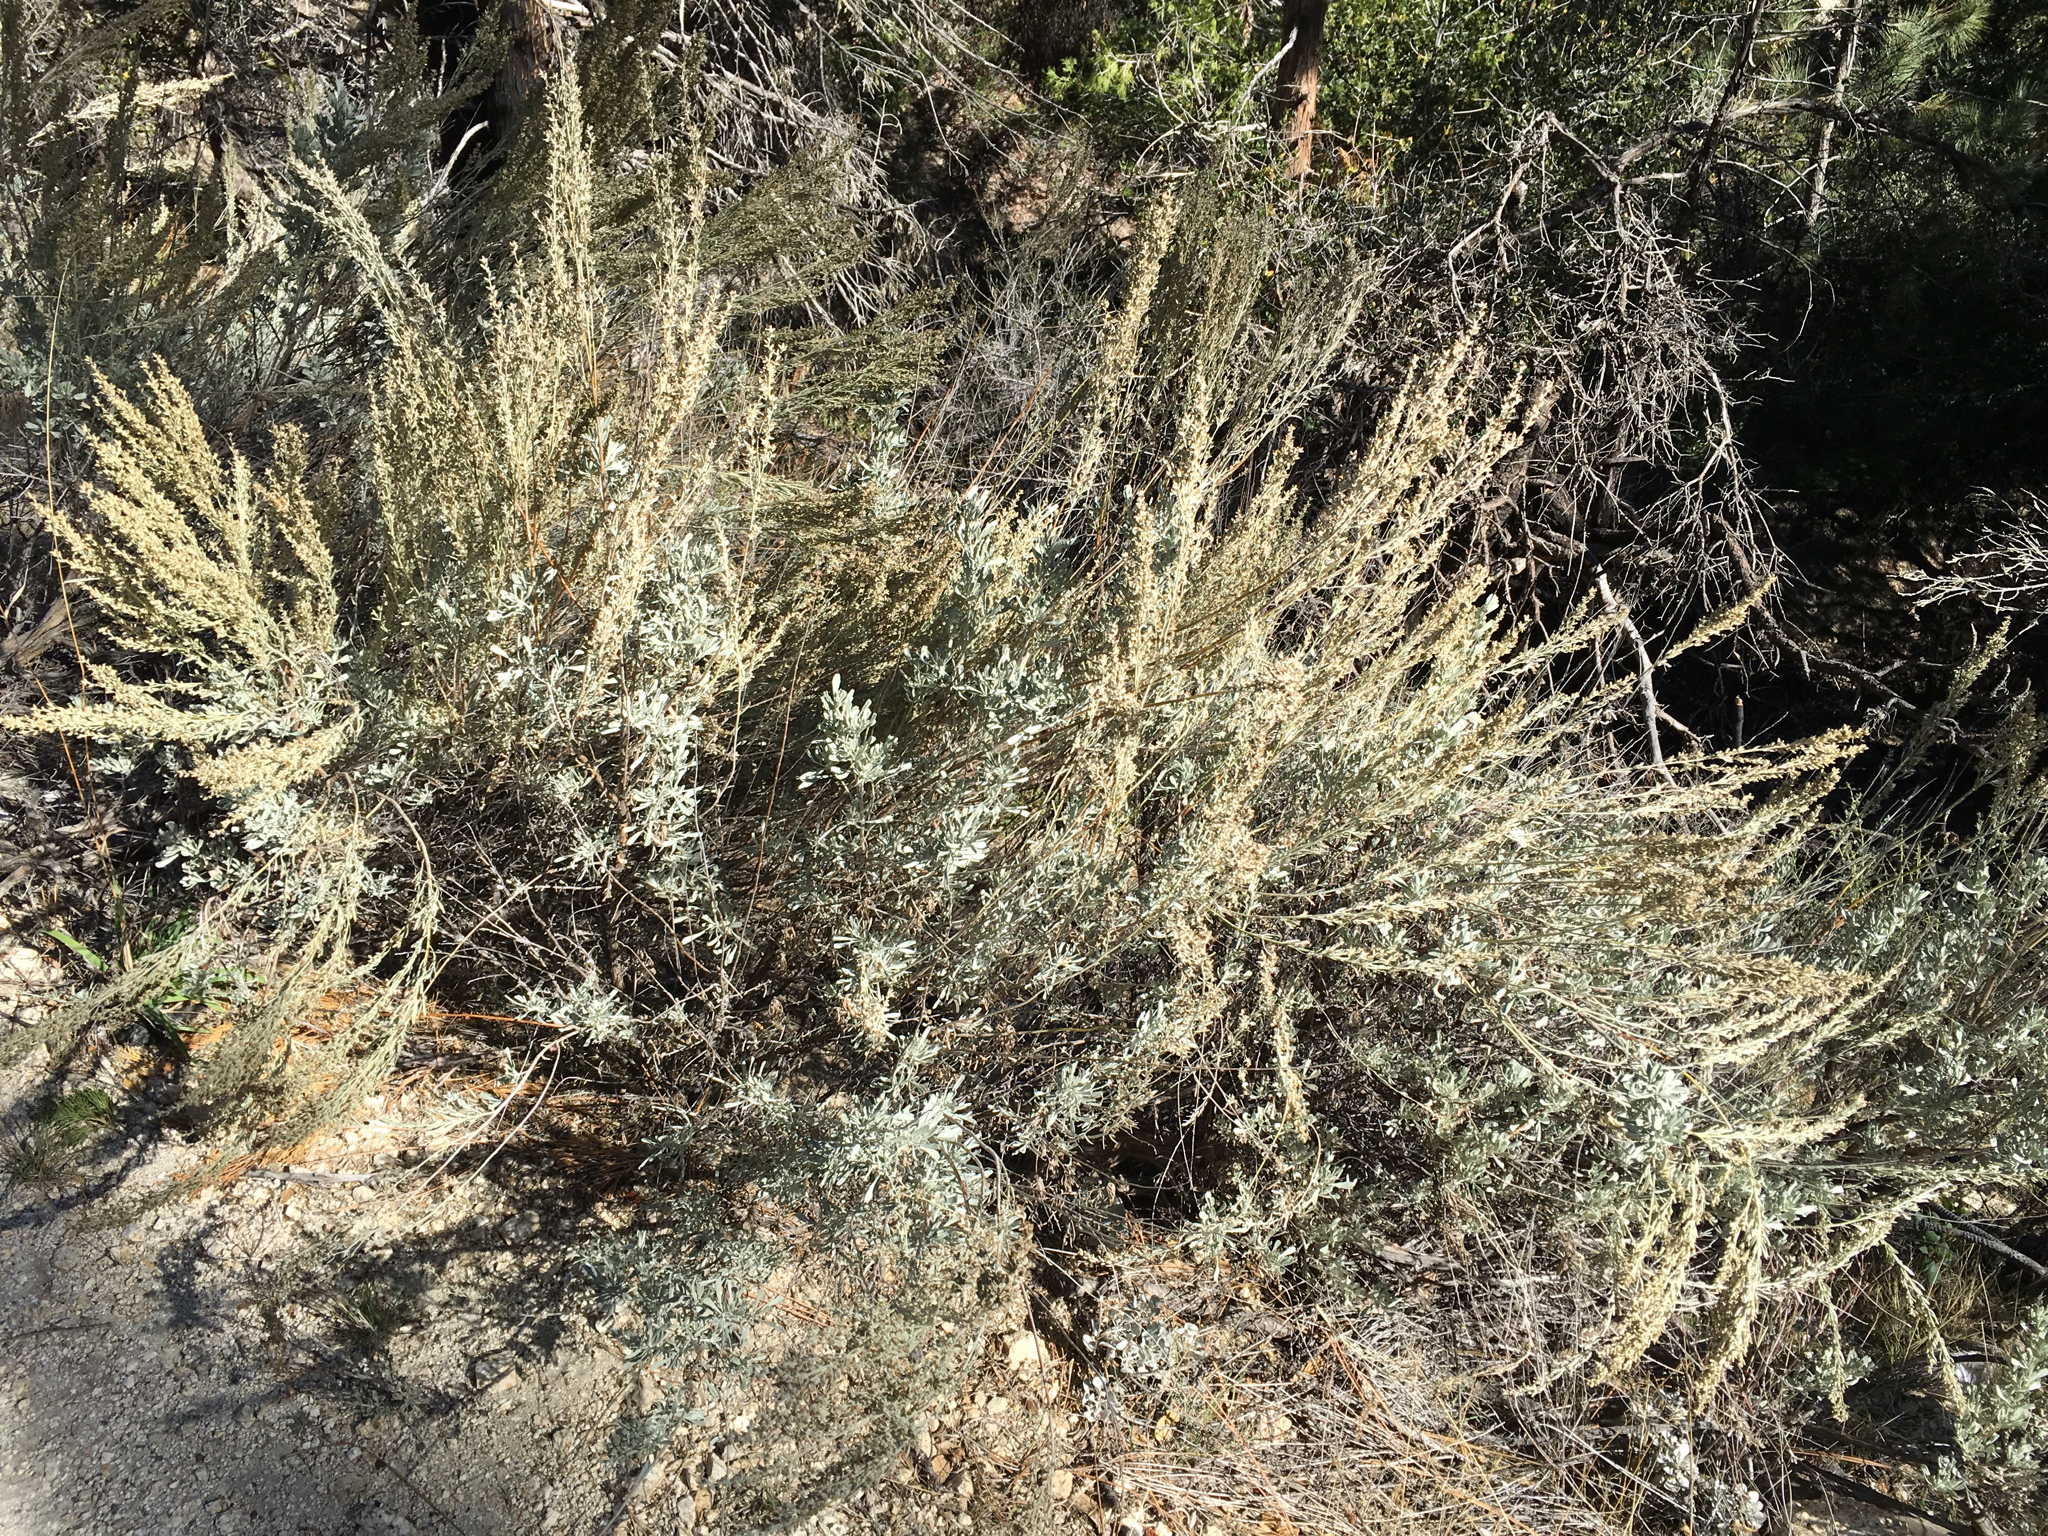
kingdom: Plantae
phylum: Tracheophyta
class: Magnoliopsida
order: Asterales
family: Asteraceae
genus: Artemisia
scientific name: Artemisia tridentata
